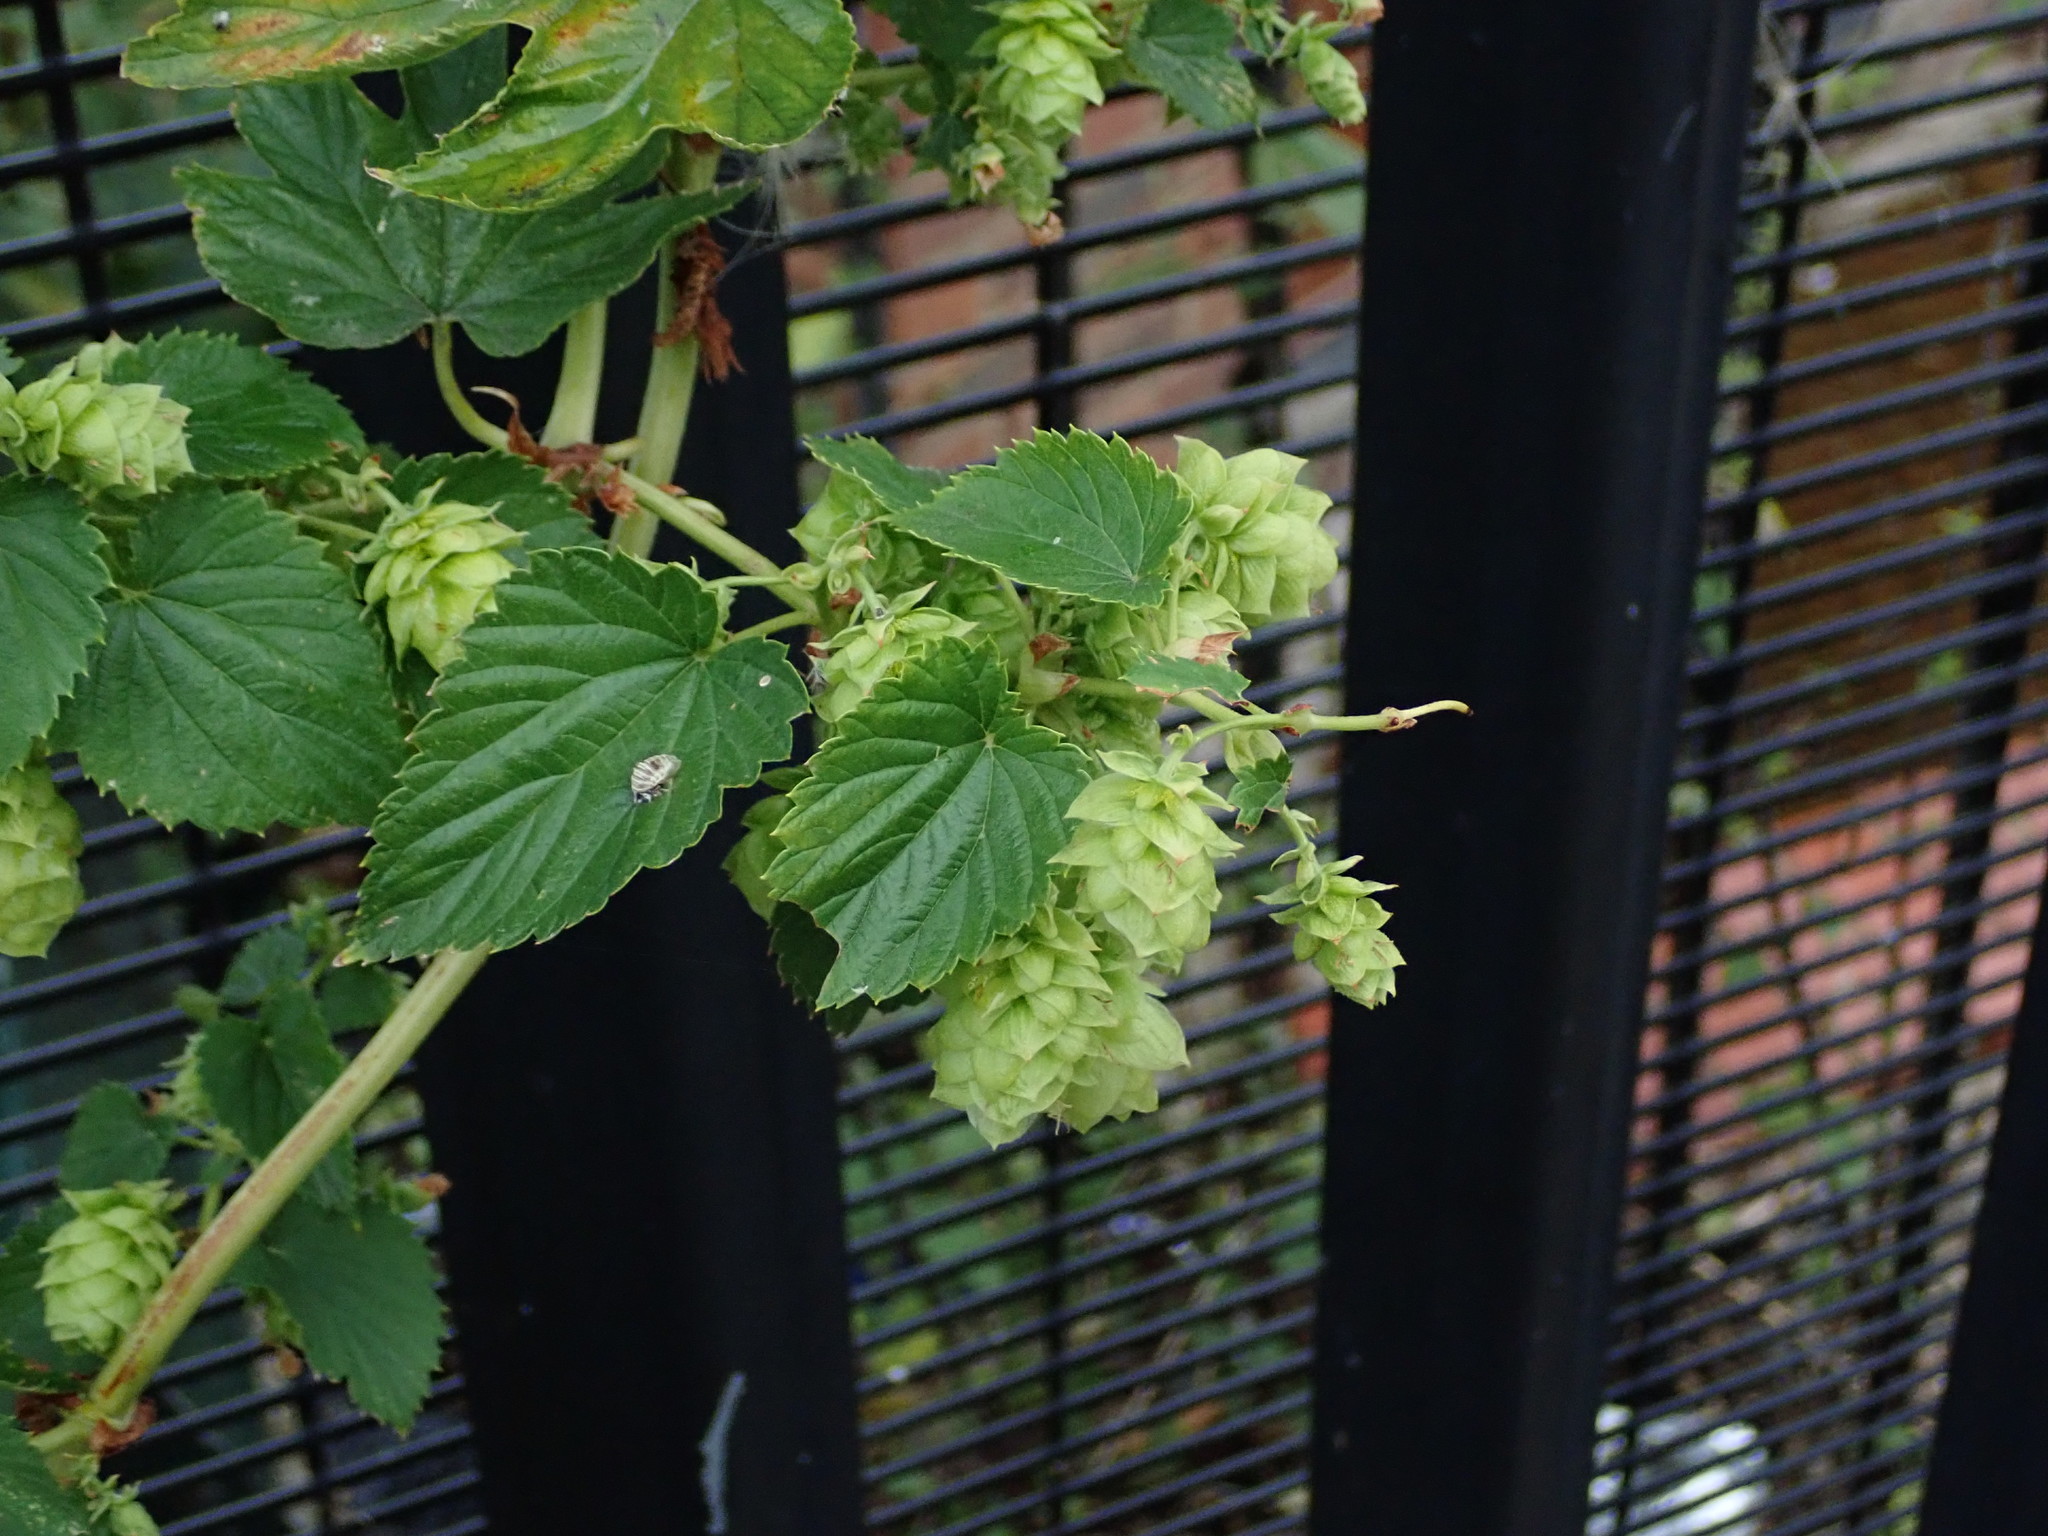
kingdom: Plantae
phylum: Tracheophyta
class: Magnoliopsida
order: Rosales
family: Cannabaceae
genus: Humulus
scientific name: Humulus lupulus
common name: Hop
